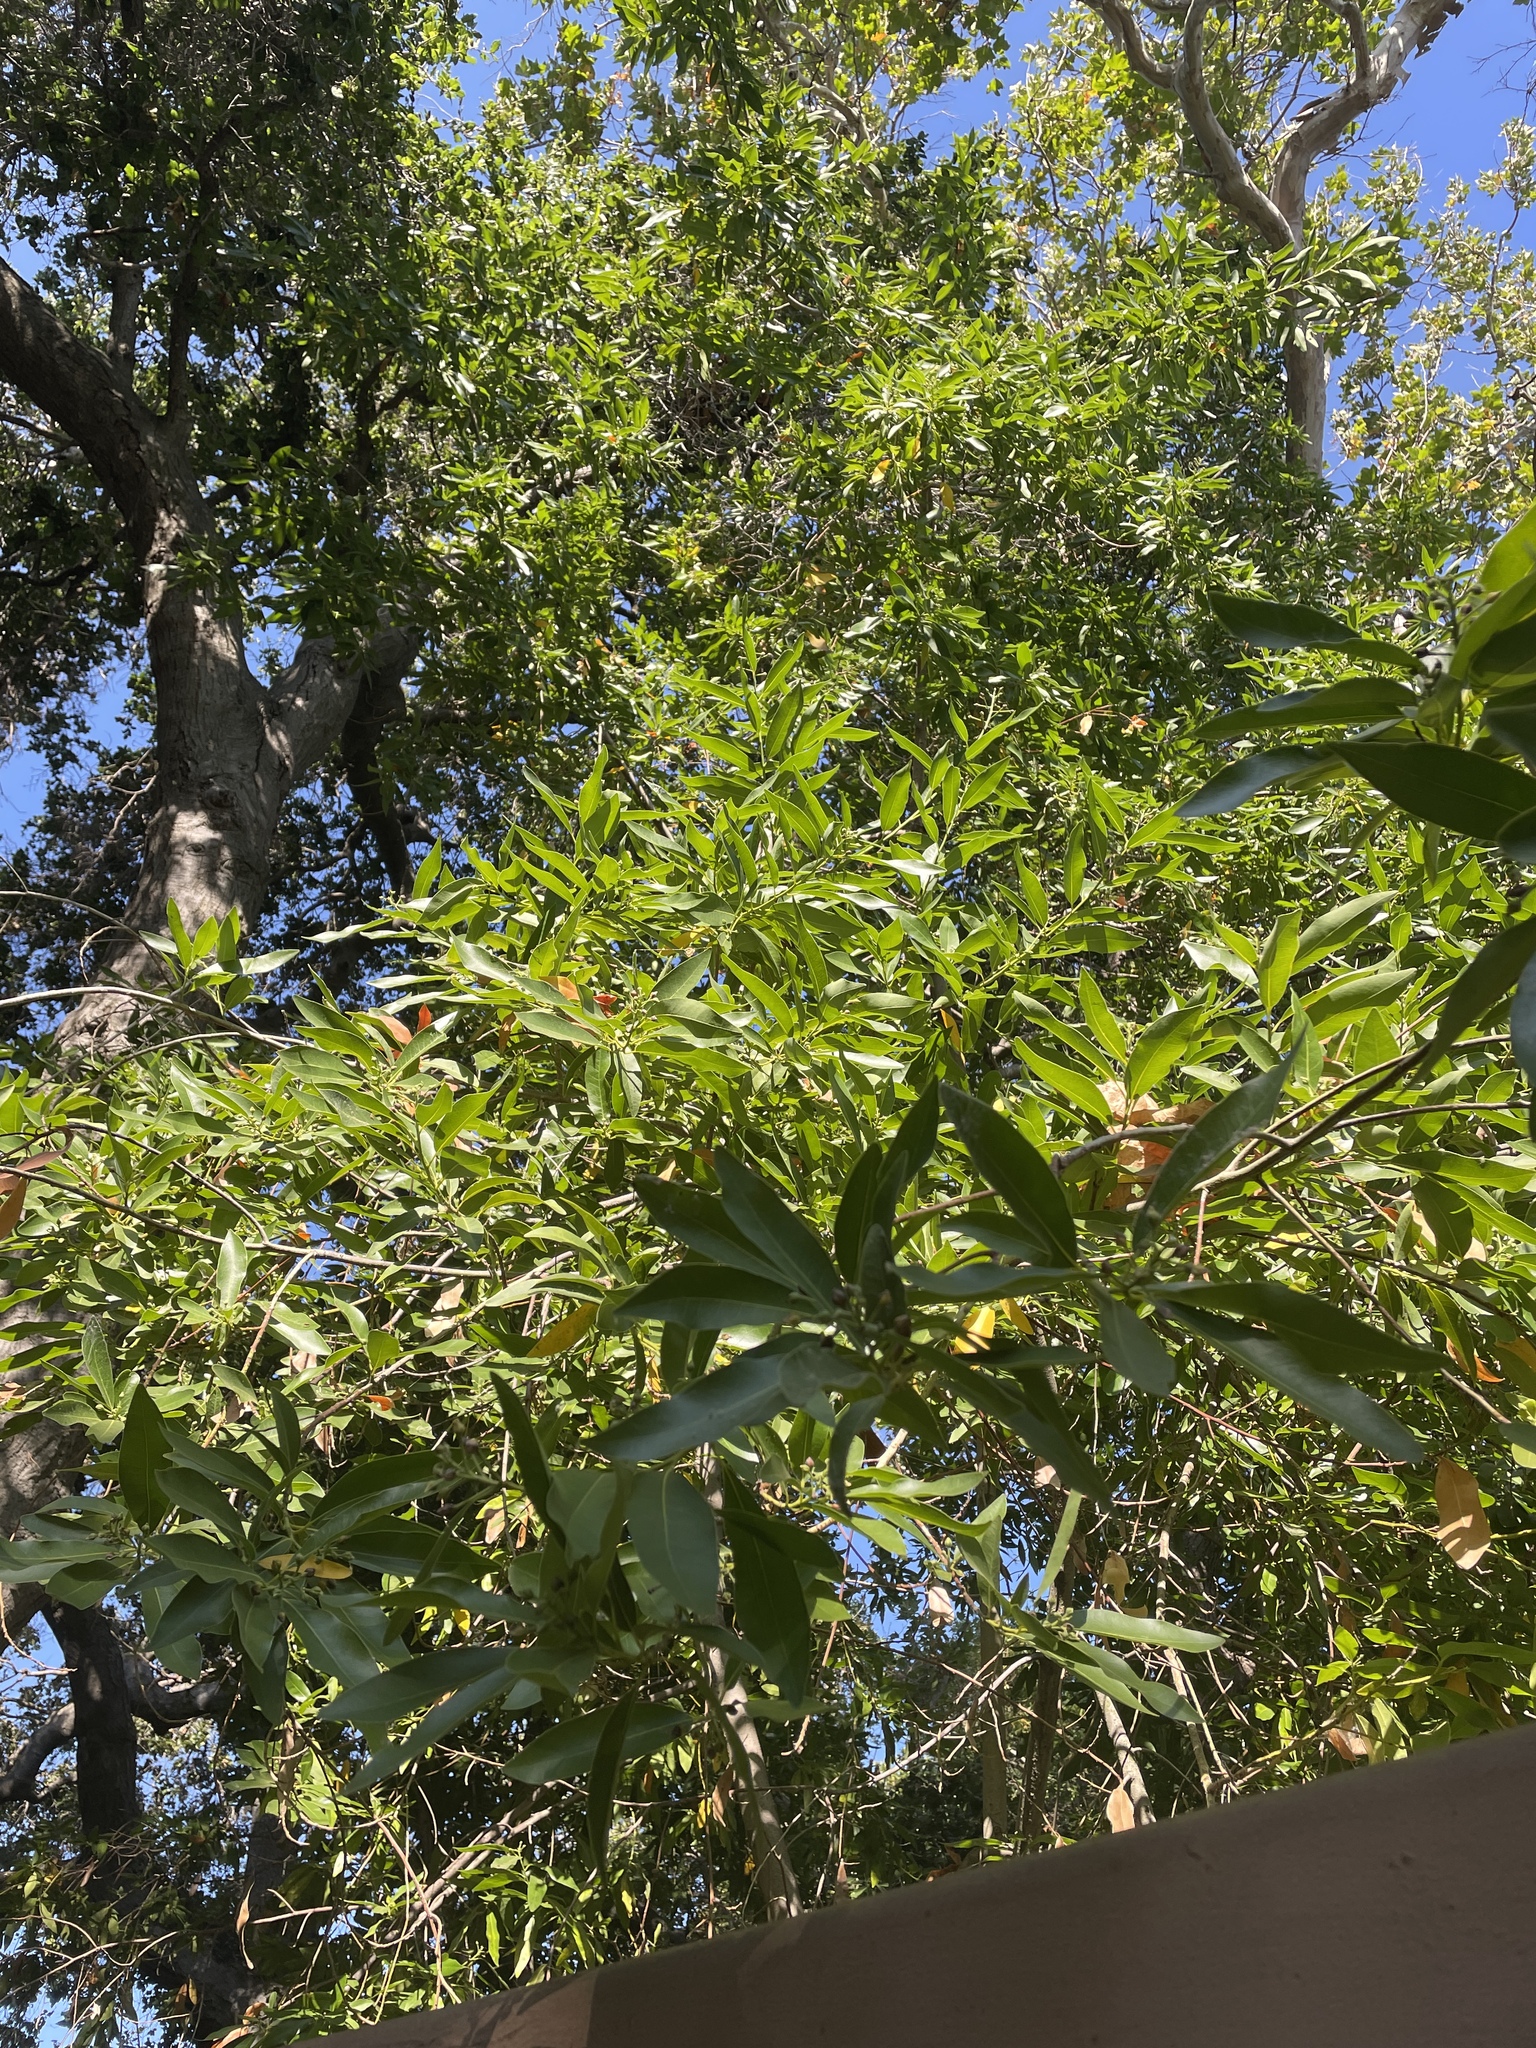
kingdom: Plantae
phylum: Tracheophyta
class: Magnoliopsida
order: Laurales
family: Lauraceae
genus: Umbellularia
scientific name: Umbellularia californica
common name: California bay
